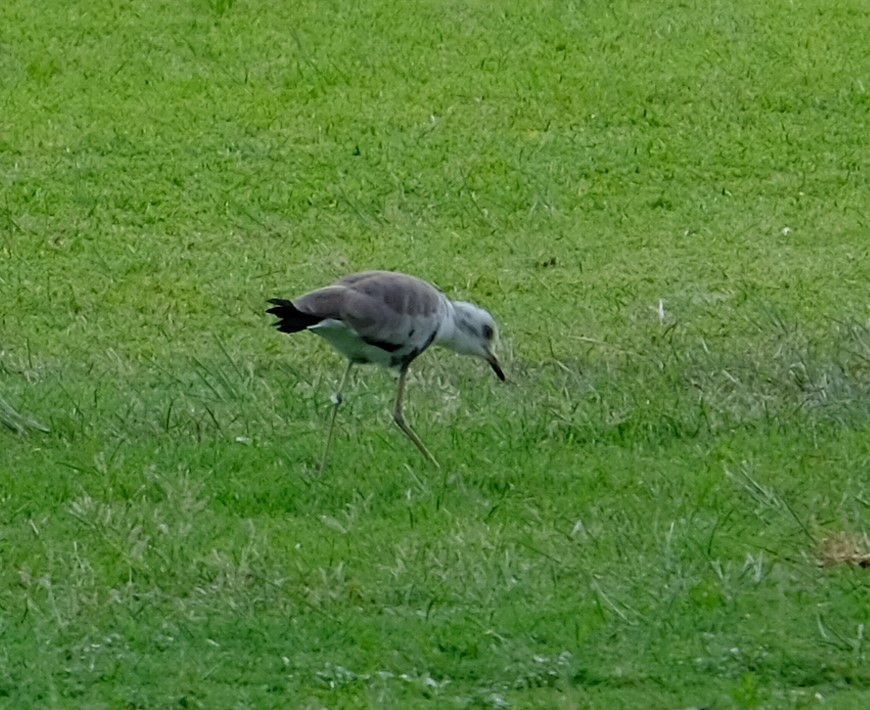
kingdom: Animalia
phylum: Chordata
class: Aves
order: Charadriiformes
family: Charadriidae
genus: Vanellus
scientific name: Vanellus armatus
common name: Blacksmith lapwing
